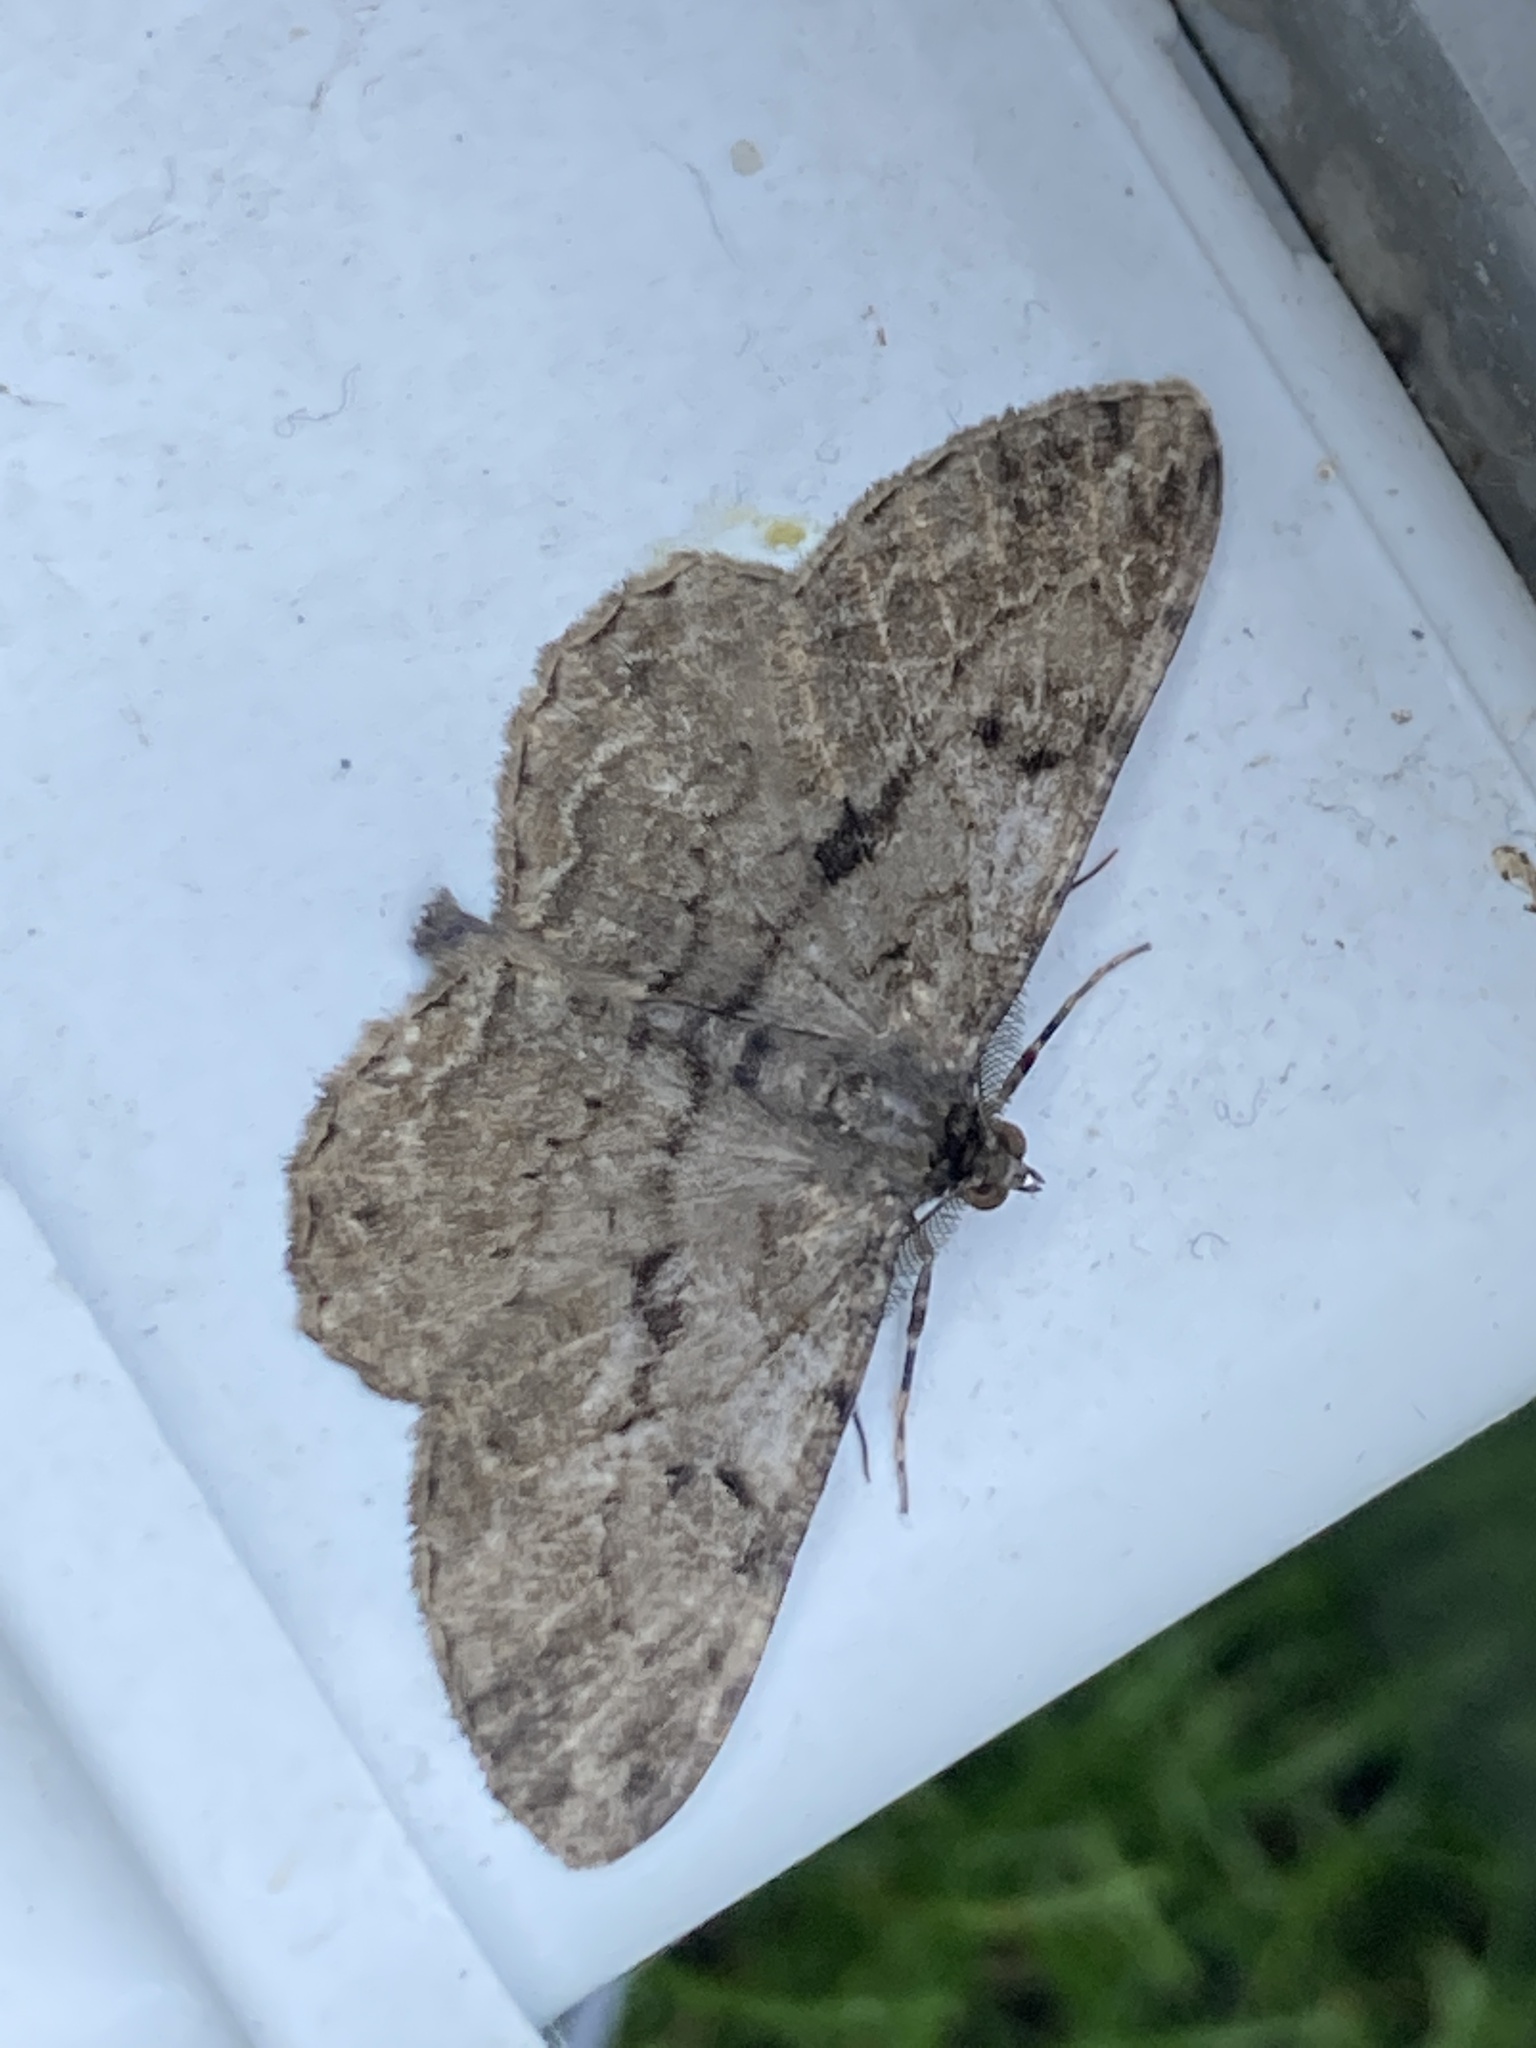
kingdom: Animalia
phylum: Arthropoda
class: Insecta
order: Lepidoptera
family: Geometridae
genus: Peribatodes
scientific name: Peribatodes rhomboidaria
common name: Willow beauty
